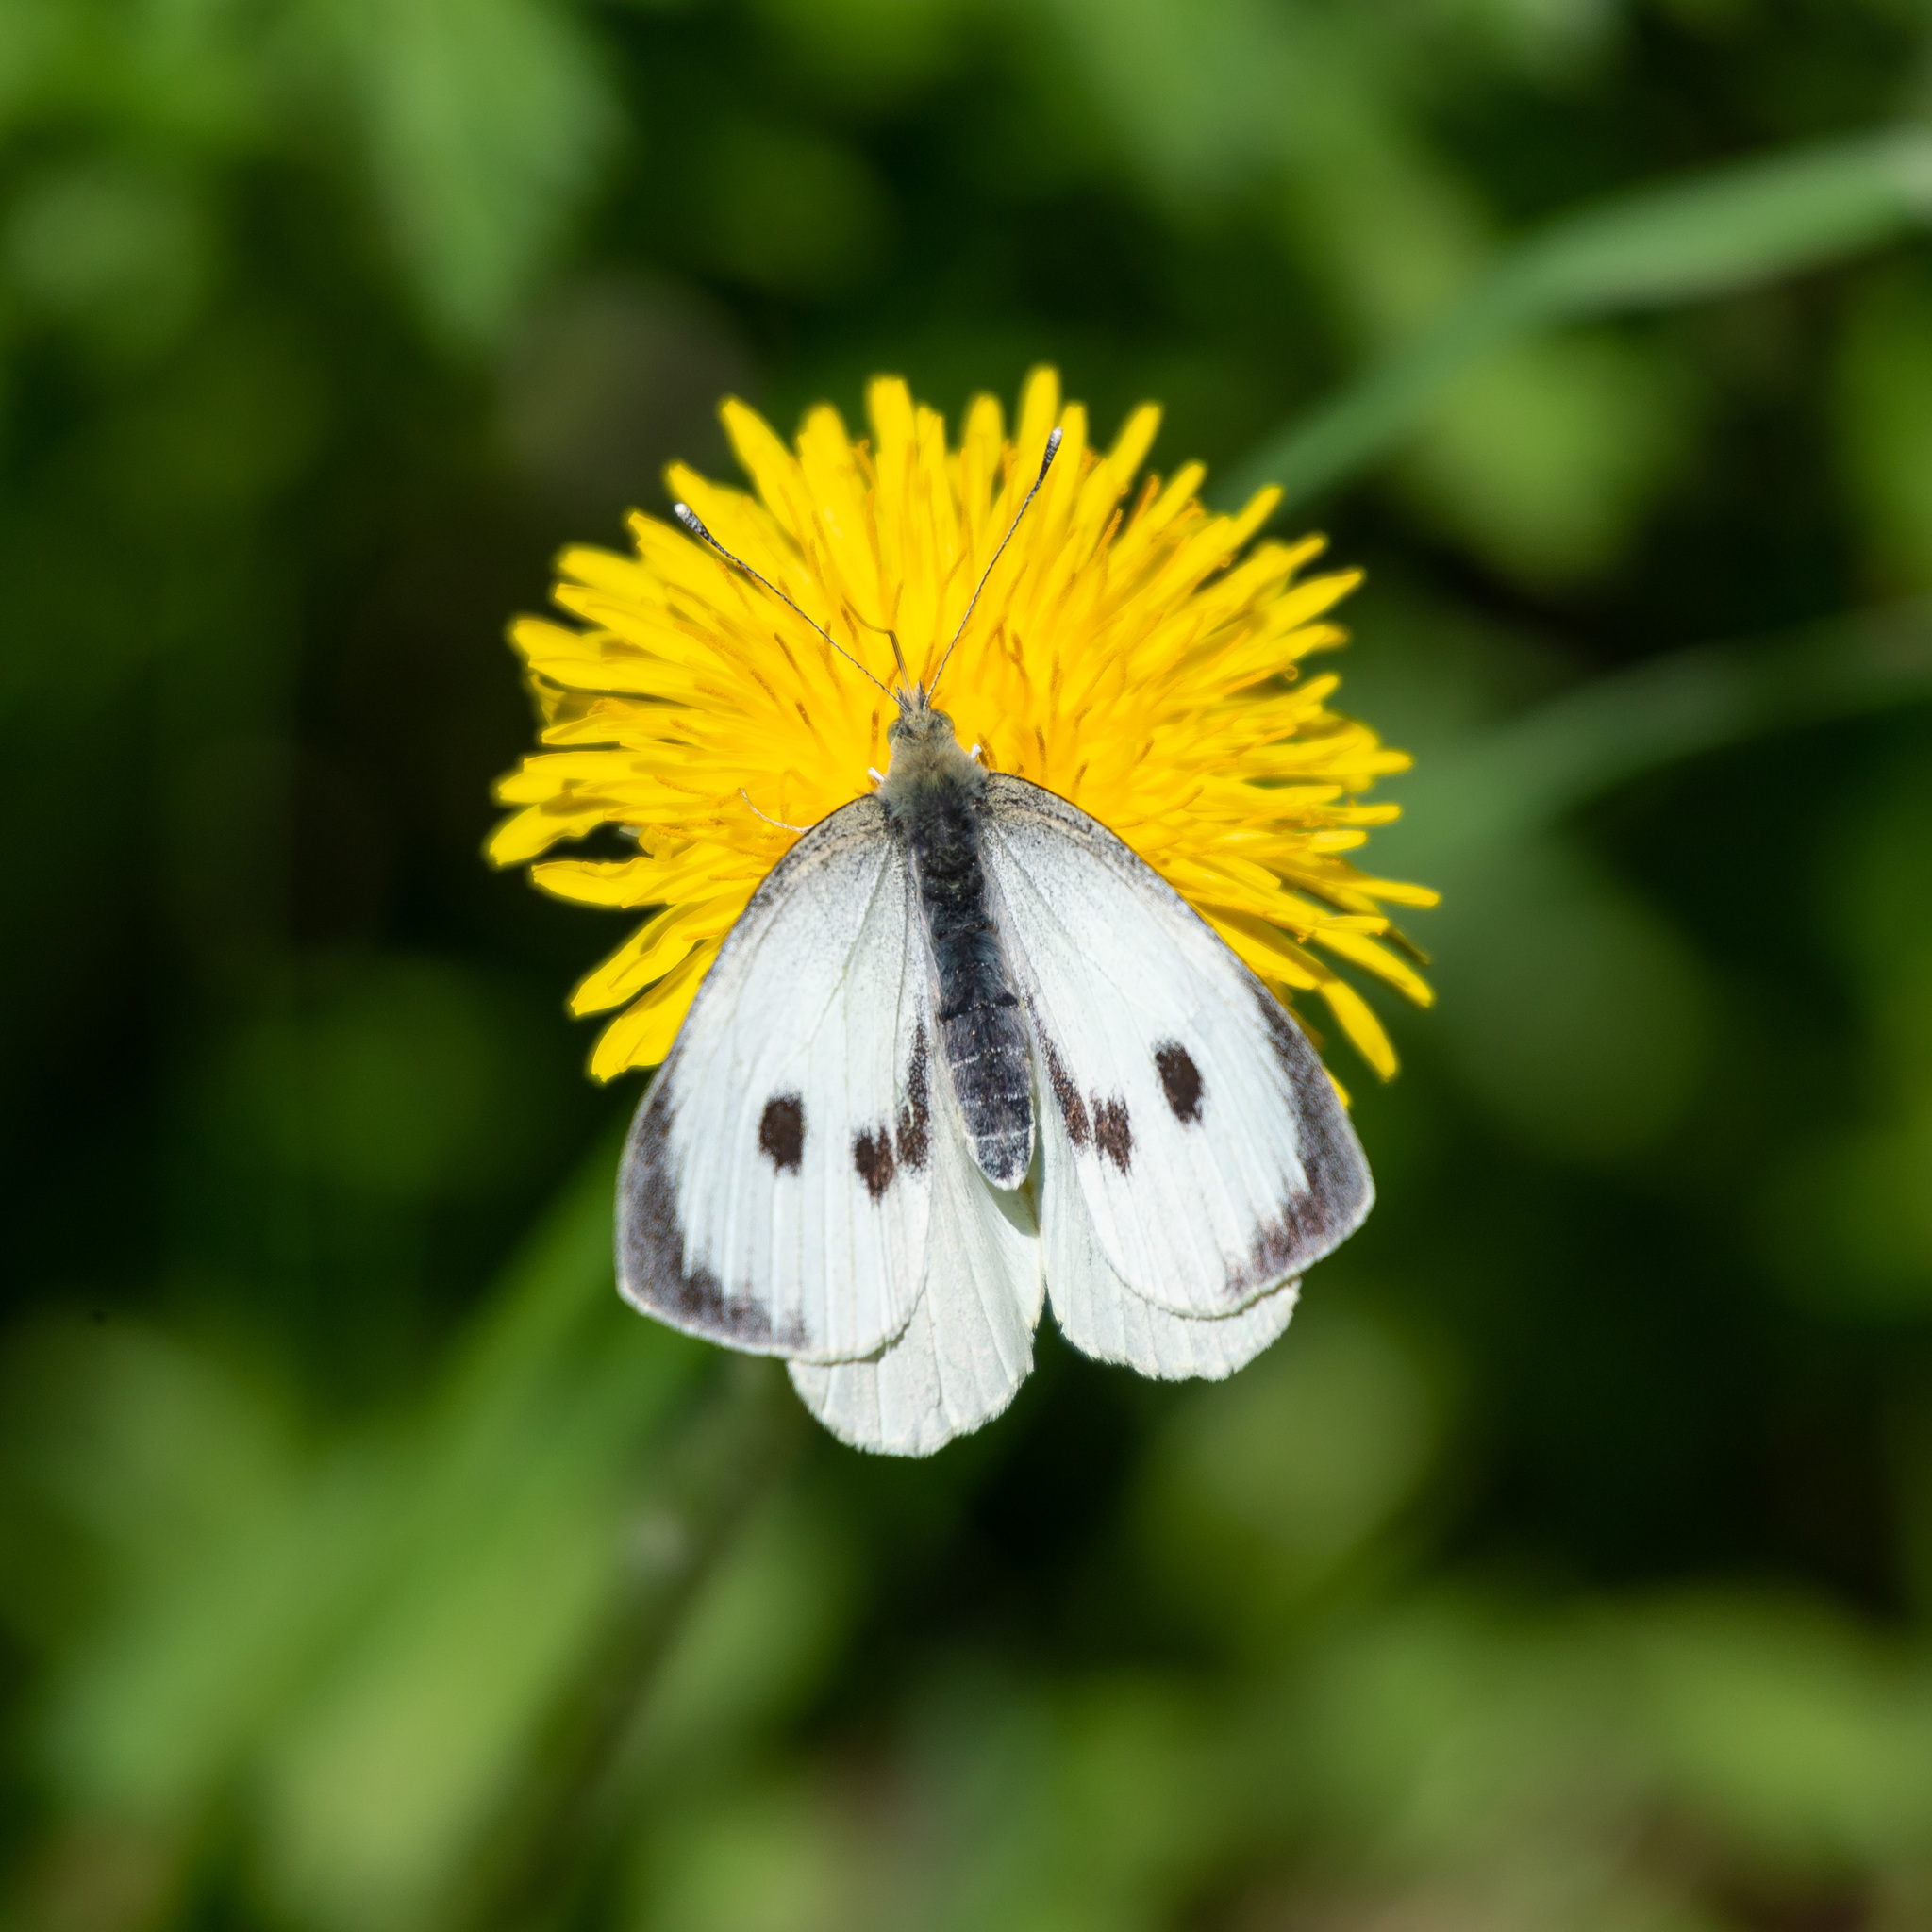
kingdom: Animalia
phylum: Arthropoda
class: Insecta
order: Lepidoptera
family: Pieridae
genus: Pieris
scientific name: Pieris brassicae
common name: Large white
